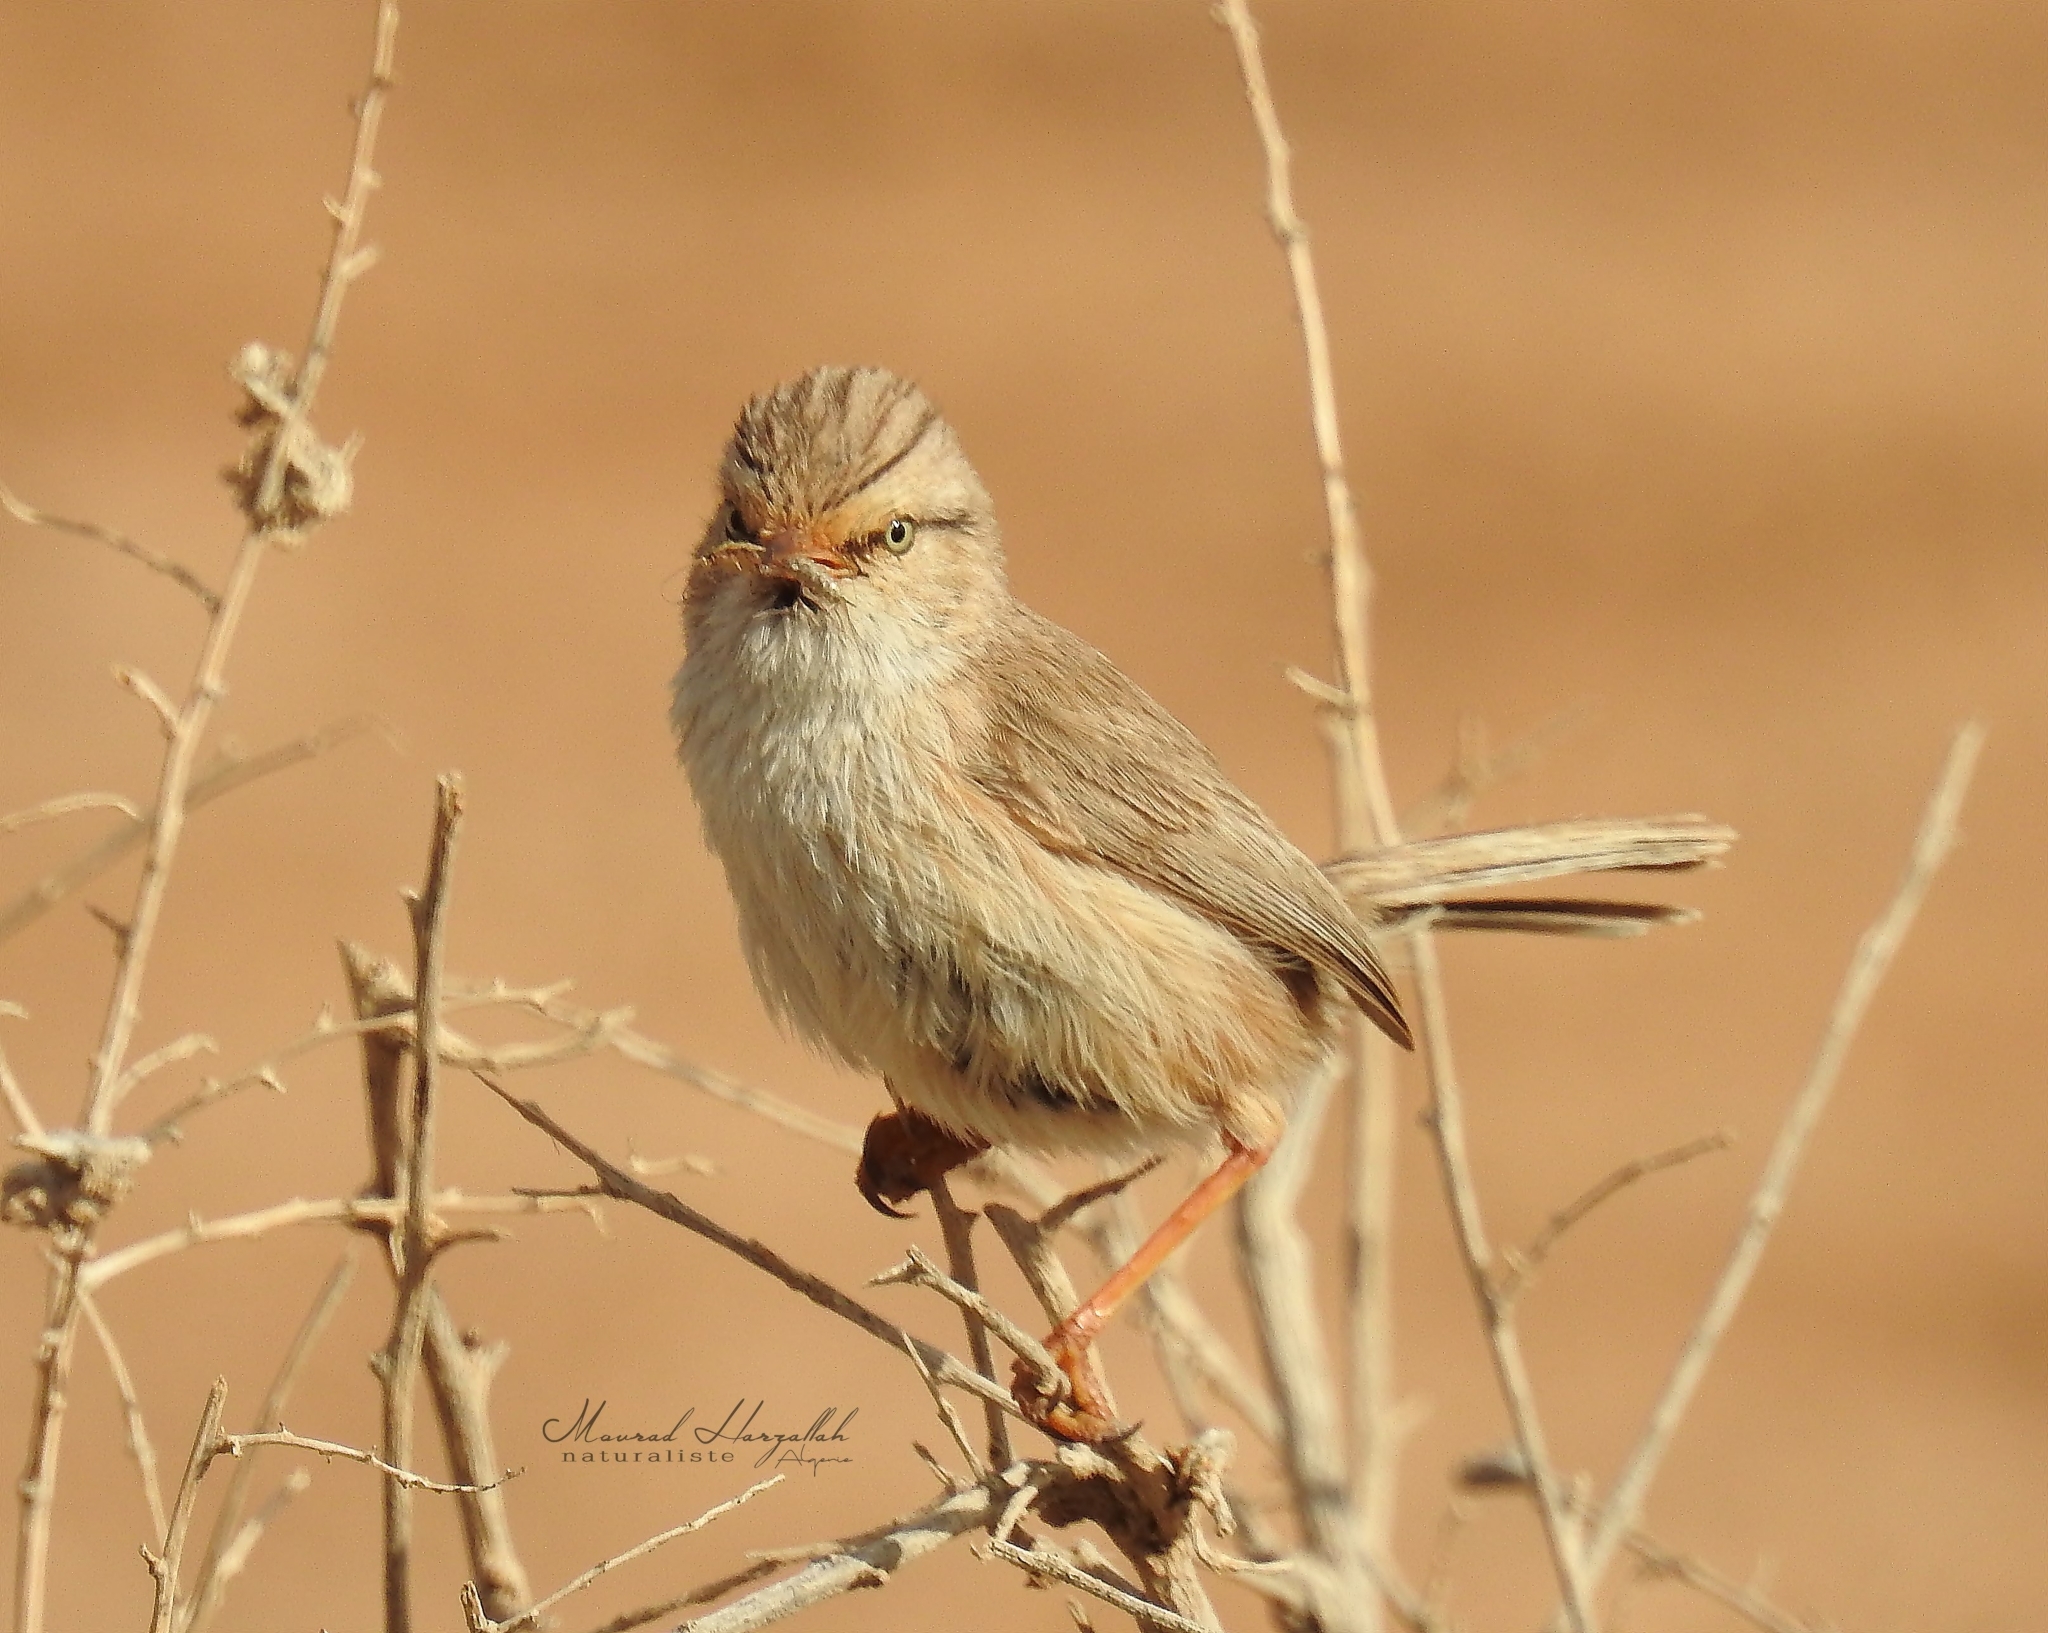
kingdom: Animalia
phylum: Chordata
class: Aves
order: Passeriformes
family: Scotocercidae
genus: Scotocerca
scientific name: Scotocerca inquieta
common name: Scrub warbler
